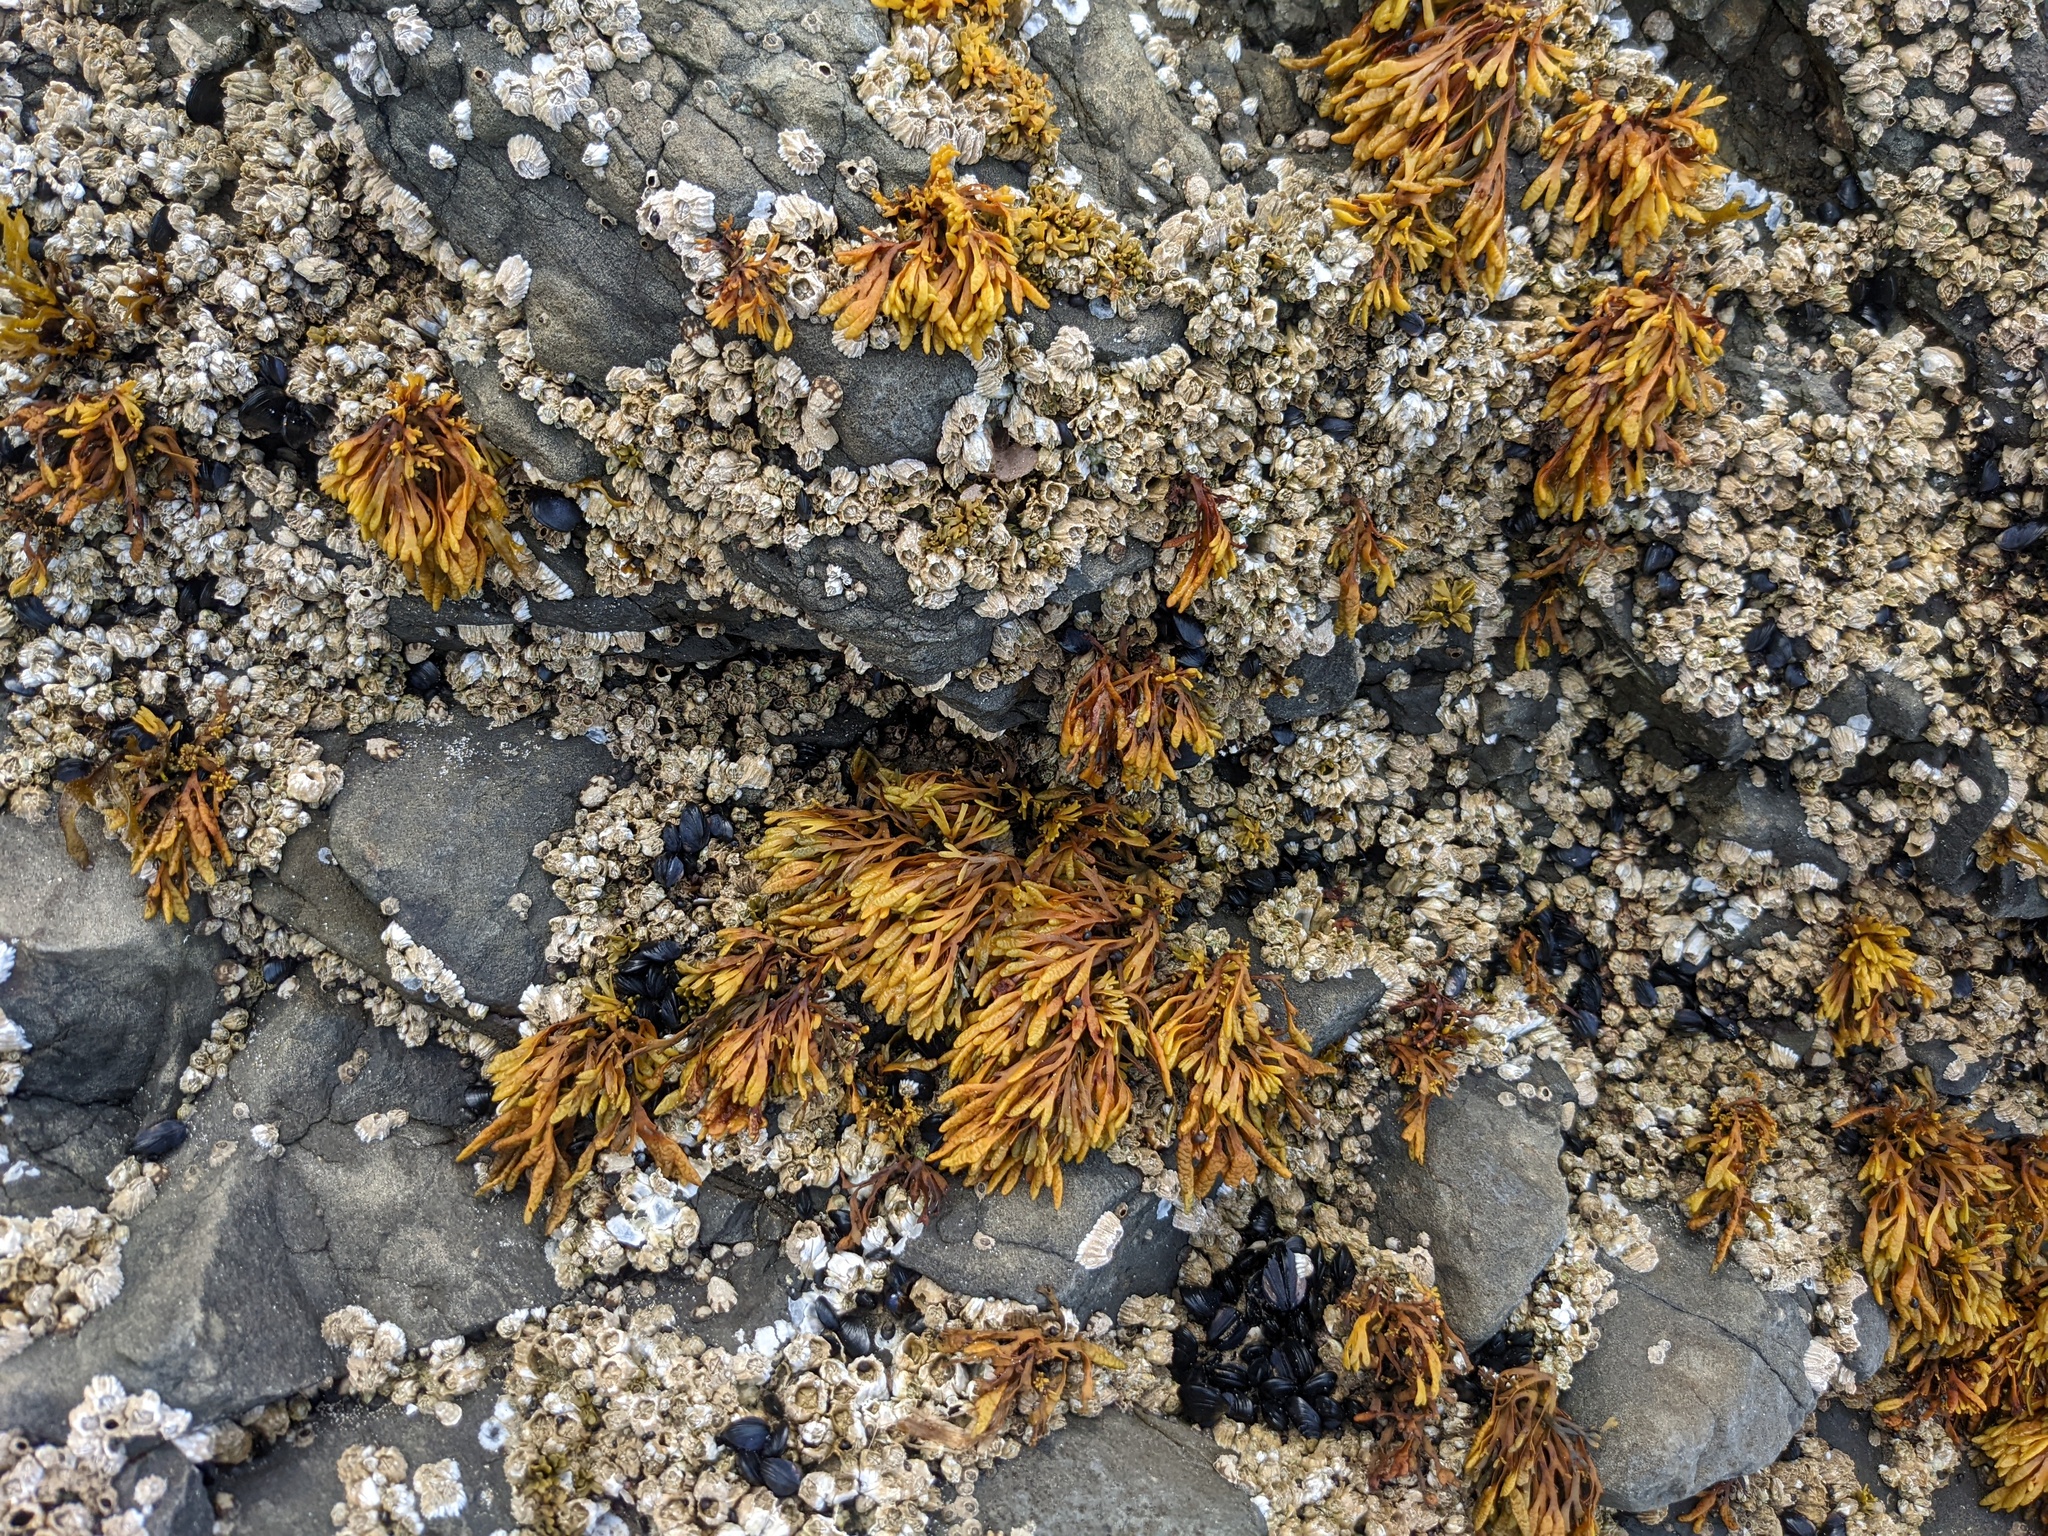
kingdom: Chromista
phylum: Ochrophyta
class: Phaeophyceae
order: Fucales
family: Fucaceae
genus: Pelvetiopsis
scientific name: Pelvetiopsis limitata
